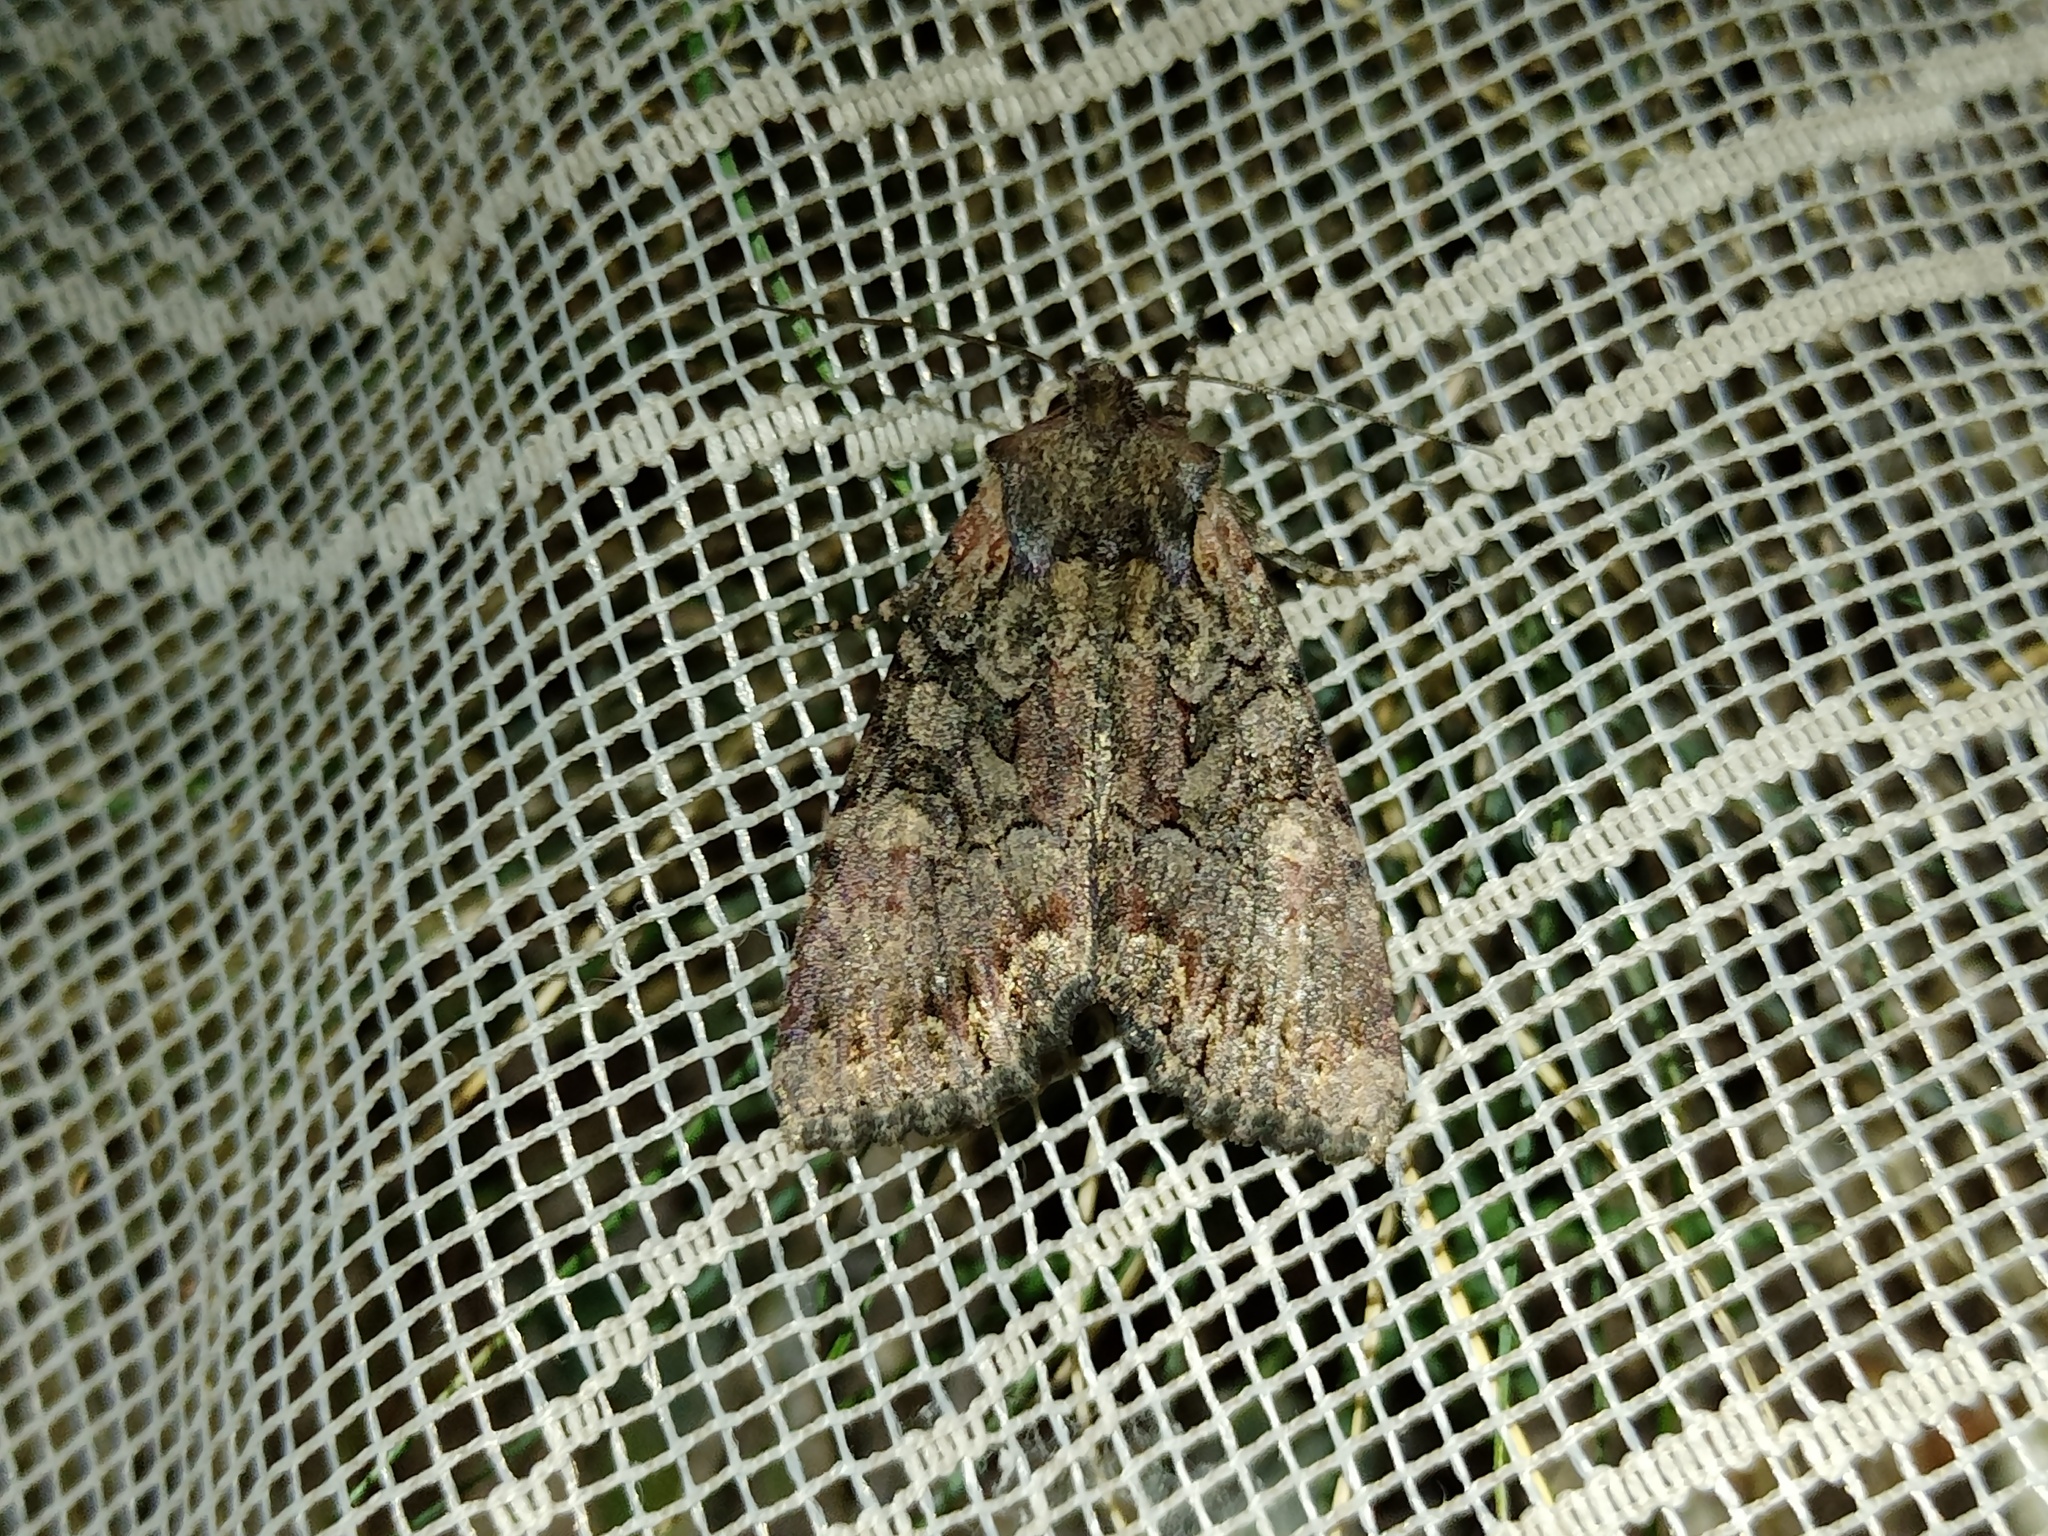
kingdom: Animalia
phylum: Arthropoda
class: Insecta
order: Lepidoptera
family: Noctuidae
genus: Lacanobia
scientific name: Lacanobia aliena
